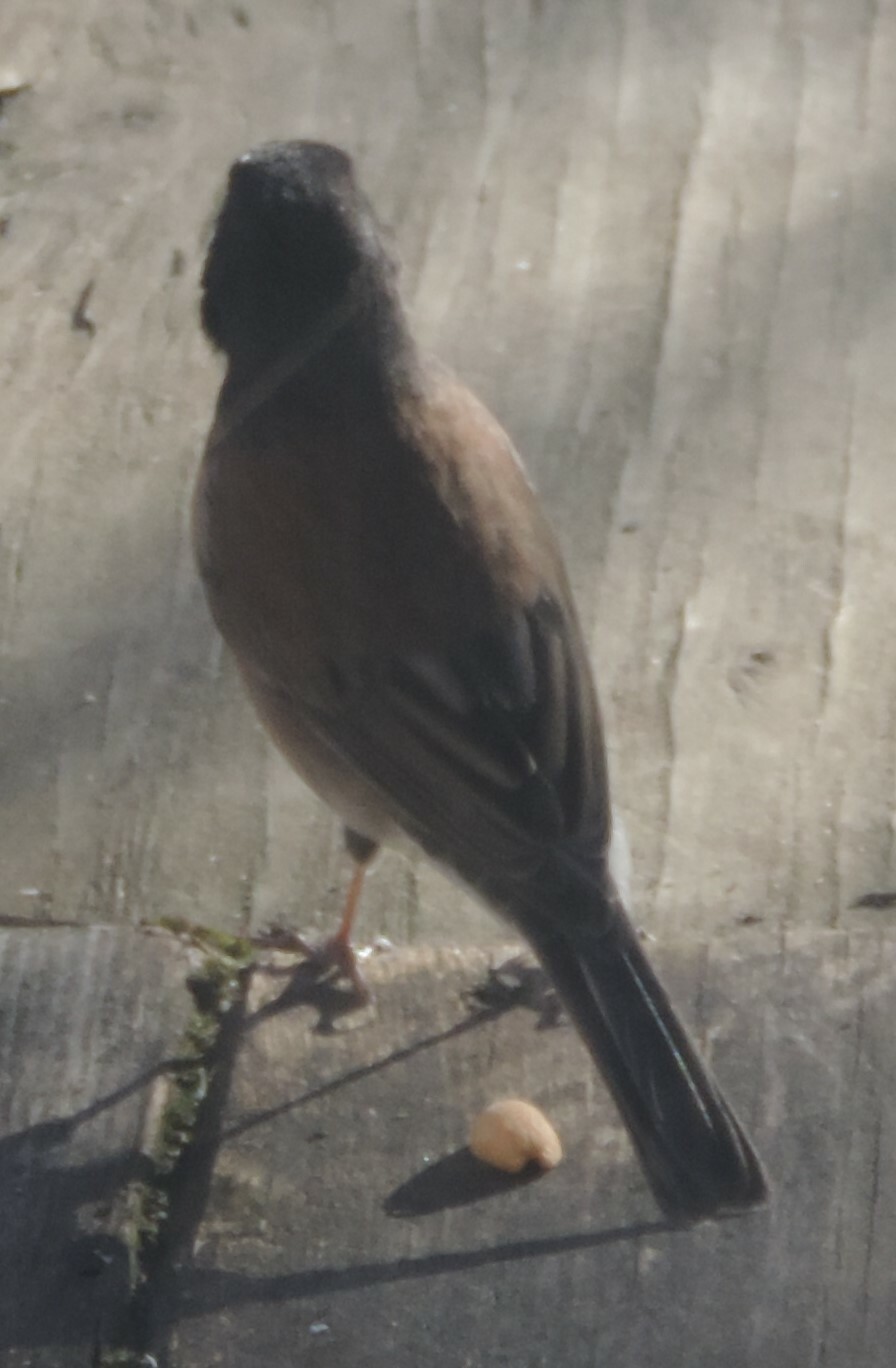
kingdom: Animalia
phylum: Chordata
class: Aves
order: Passeriformes
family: Passerellidae
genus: Junco
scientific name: Junco hyemalis
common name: Dark-eyed junco
